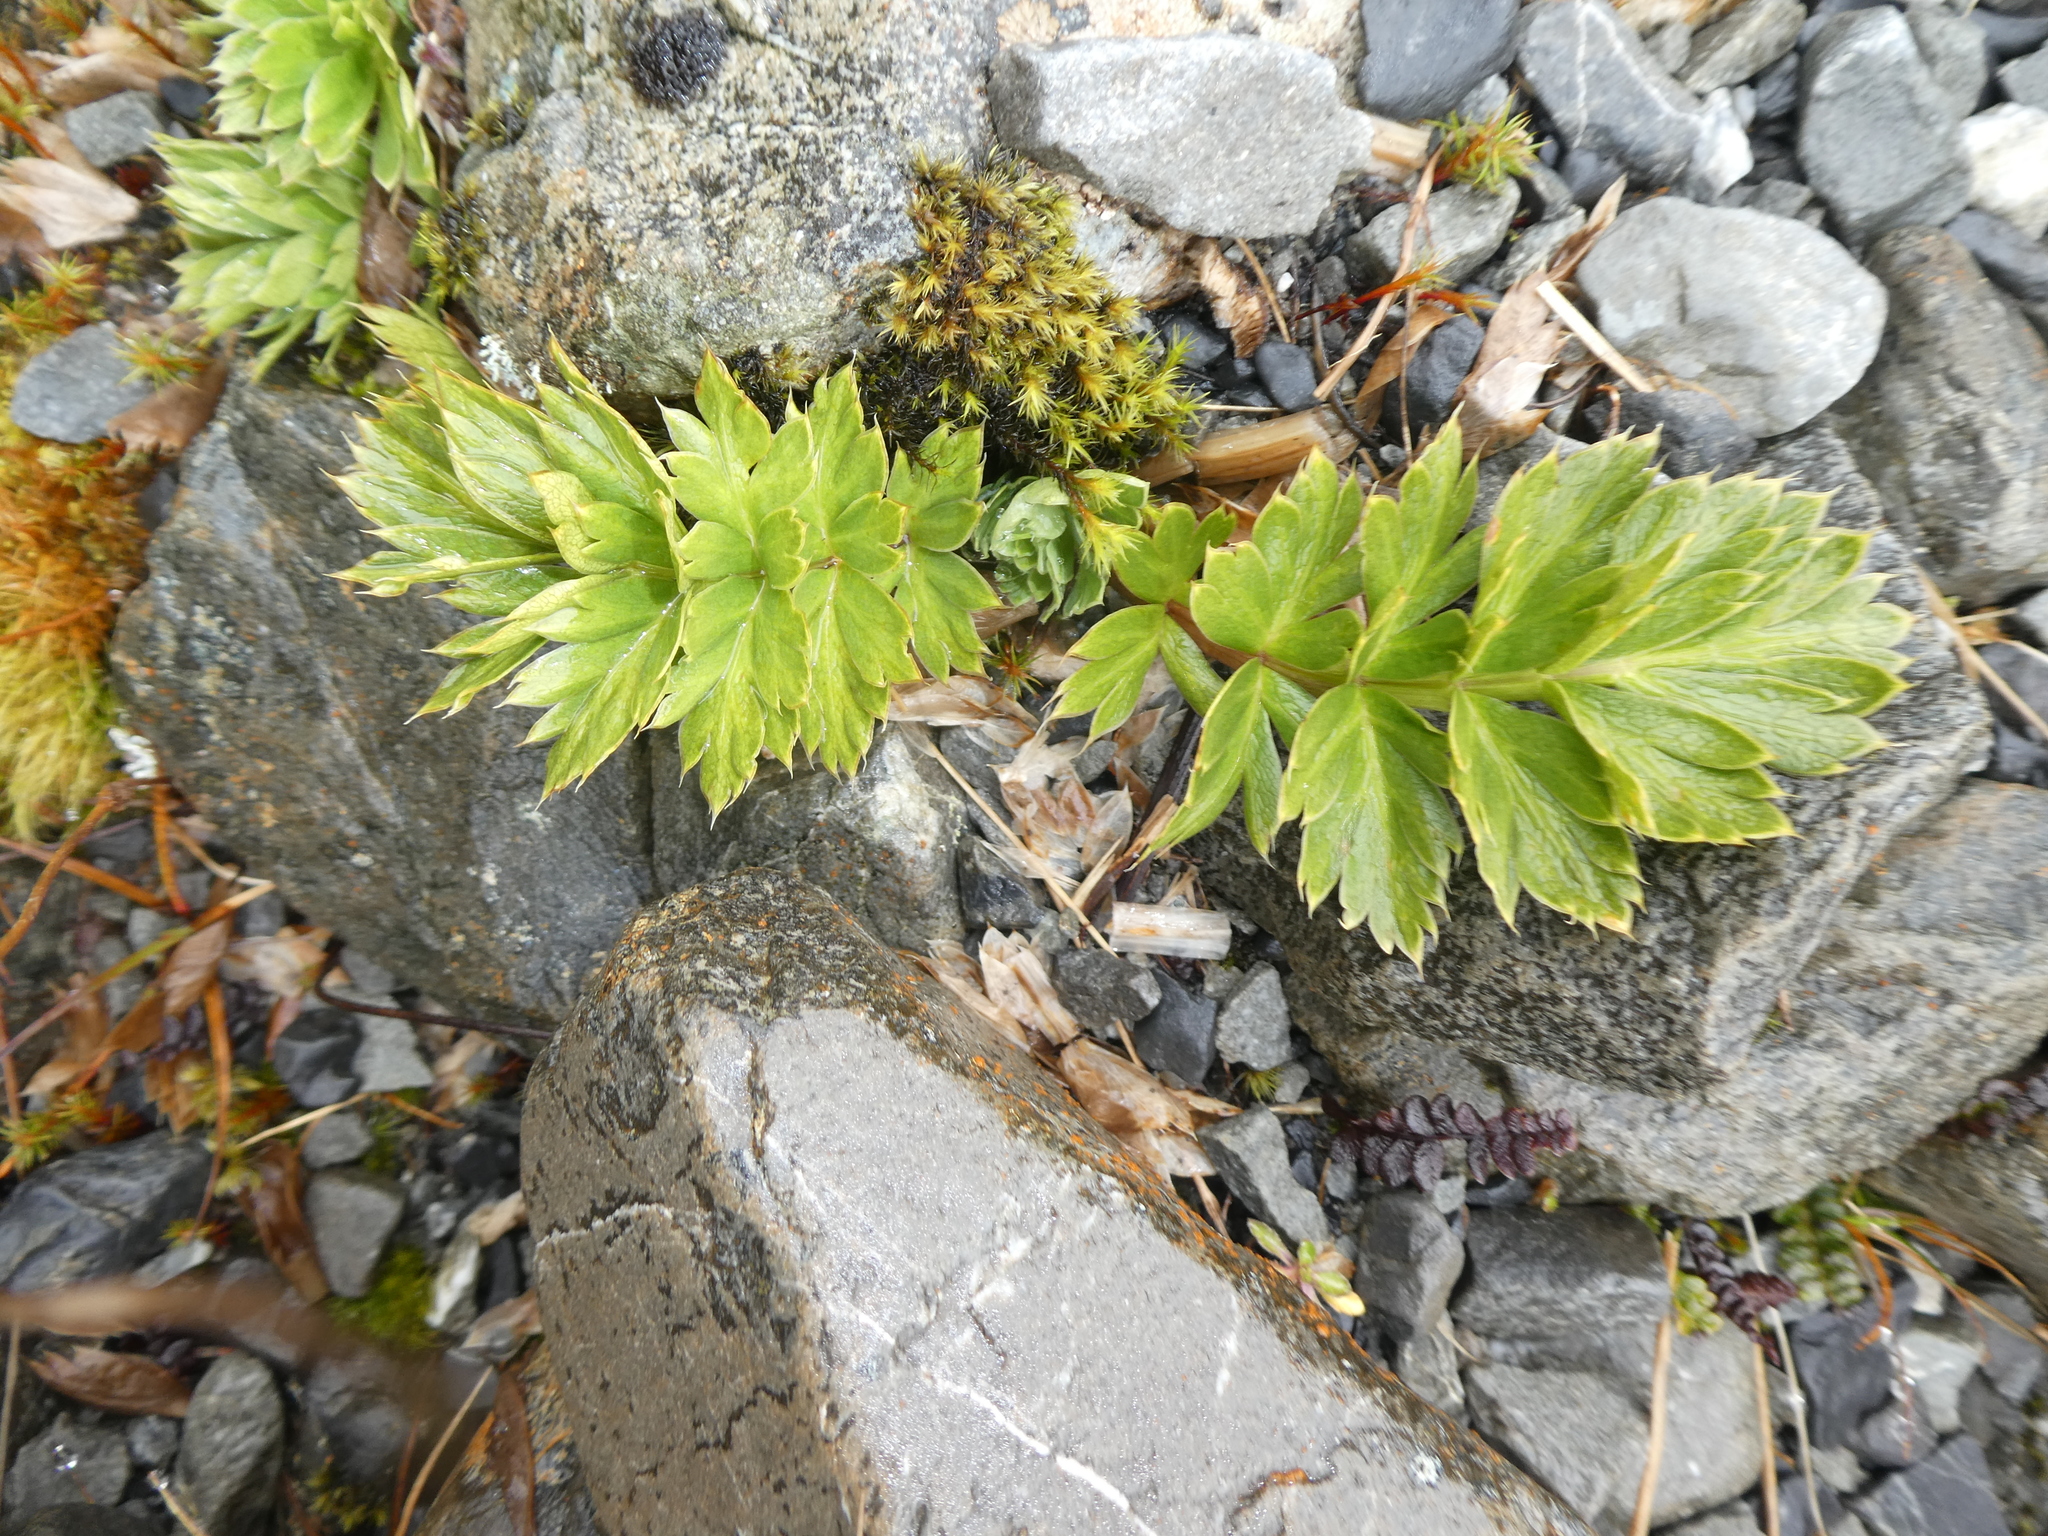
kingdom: Plantae
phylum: Tracheophyta
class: Magnoliopsida
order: Apiales
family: Apiaceae
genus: Anisotome
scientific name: Anisotome pilifera
